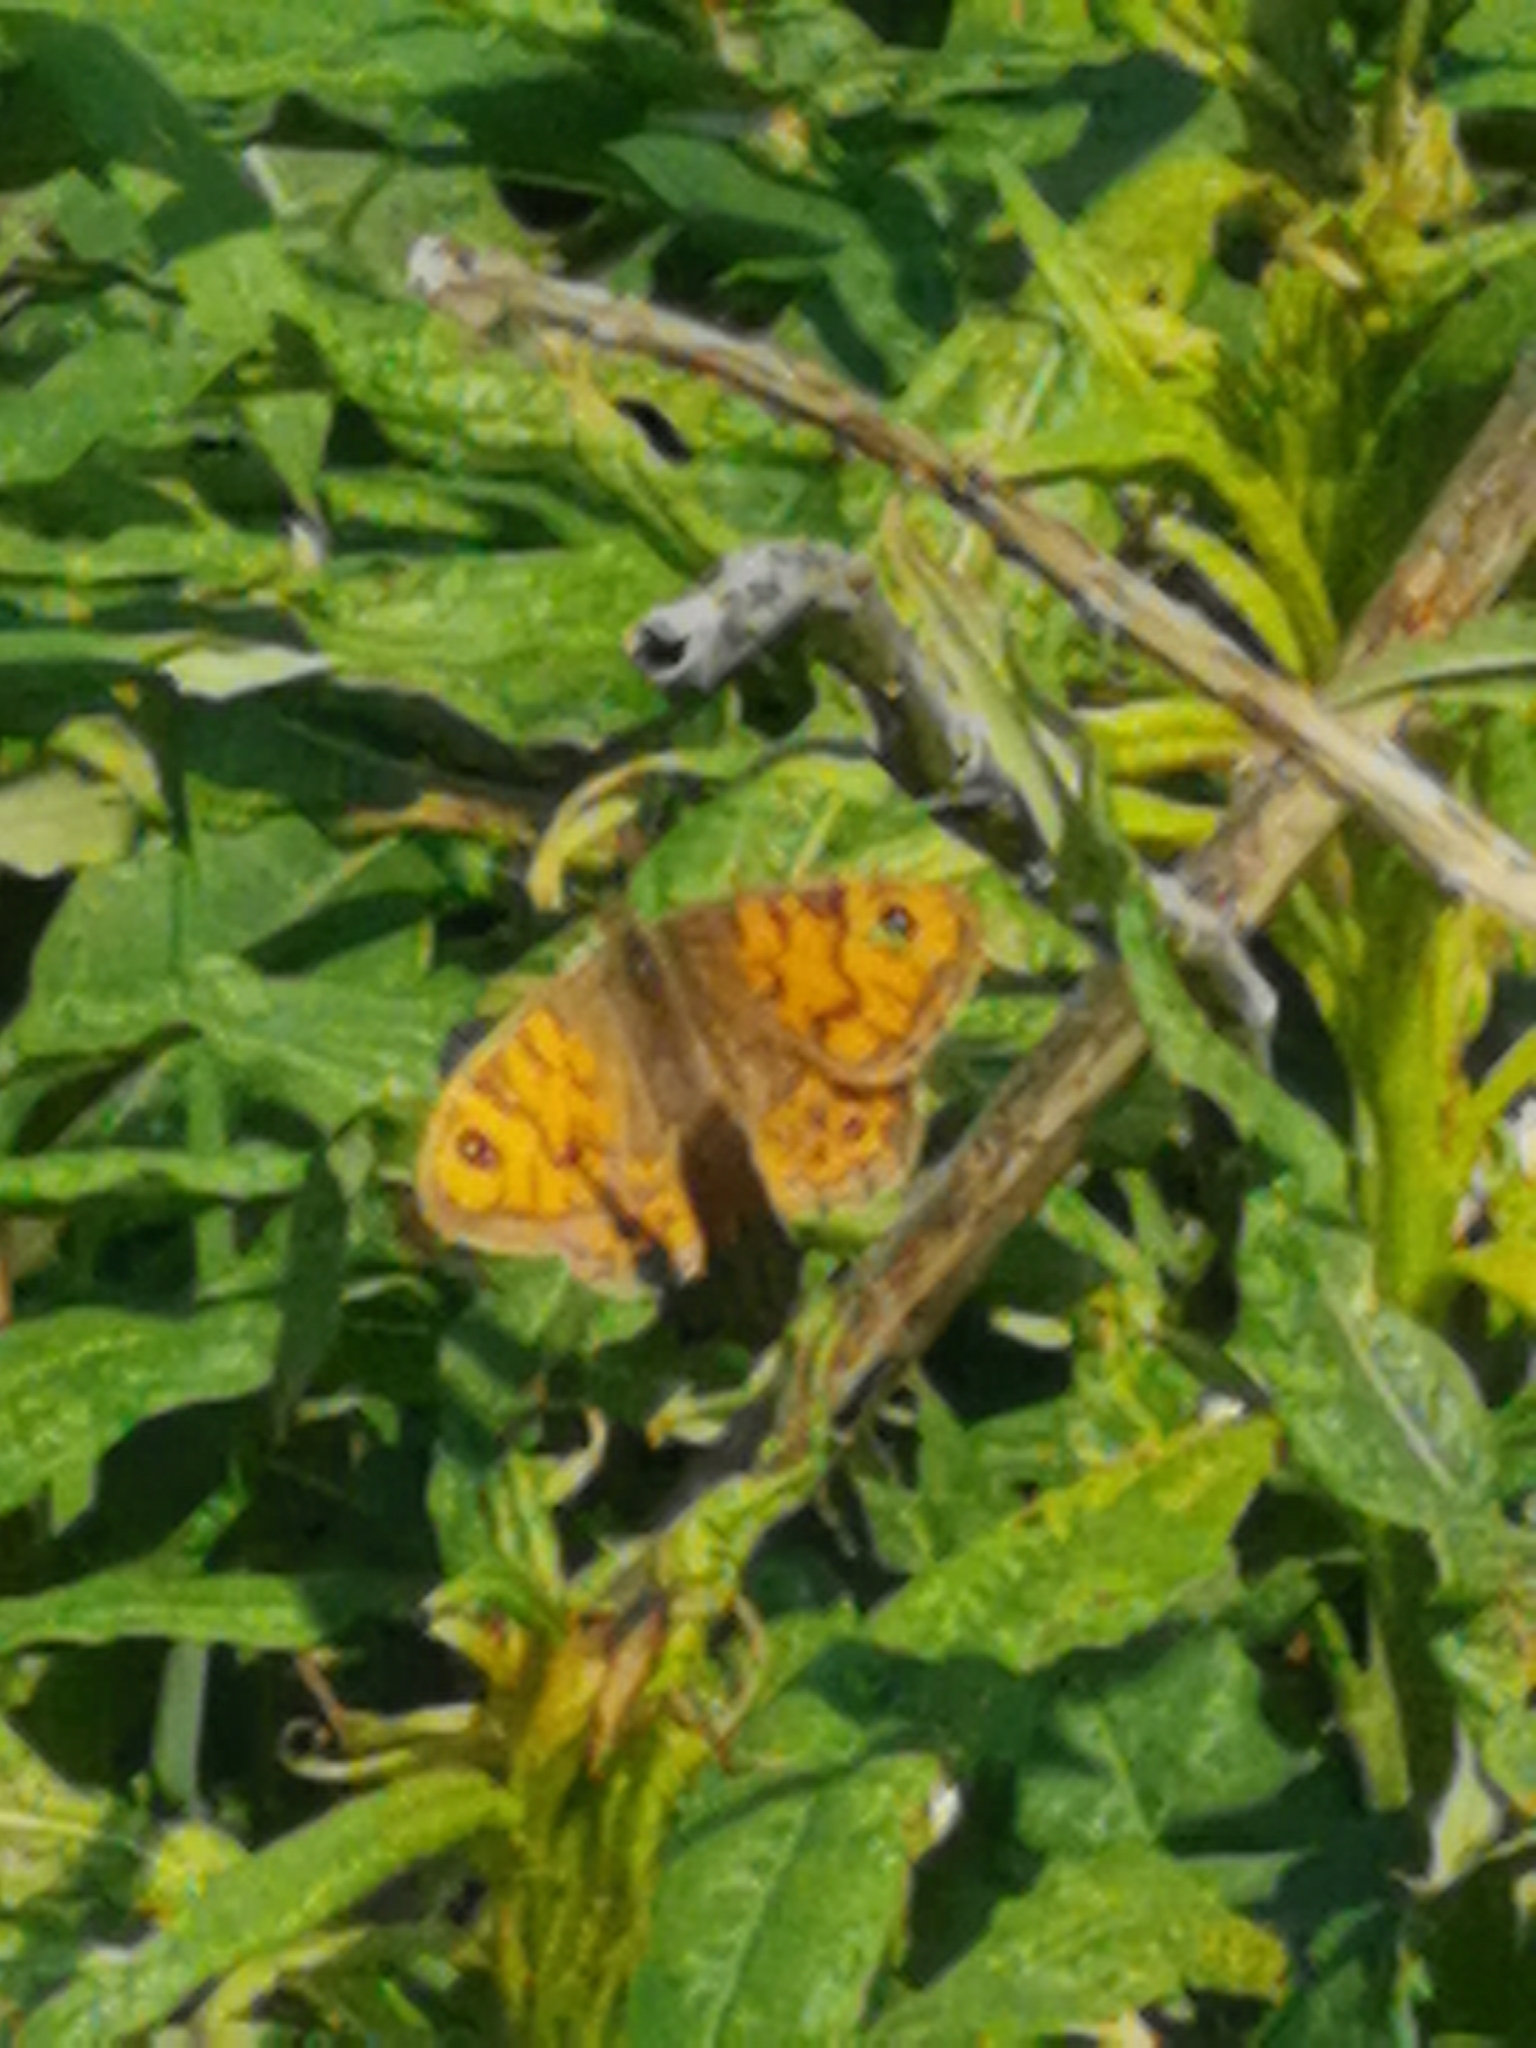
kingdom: Animalia
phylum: Arthropoda
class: Insecta
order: Lepidoptera
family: Nymphalidae
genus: Pararge
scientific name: Pararge Lasiommata megera
